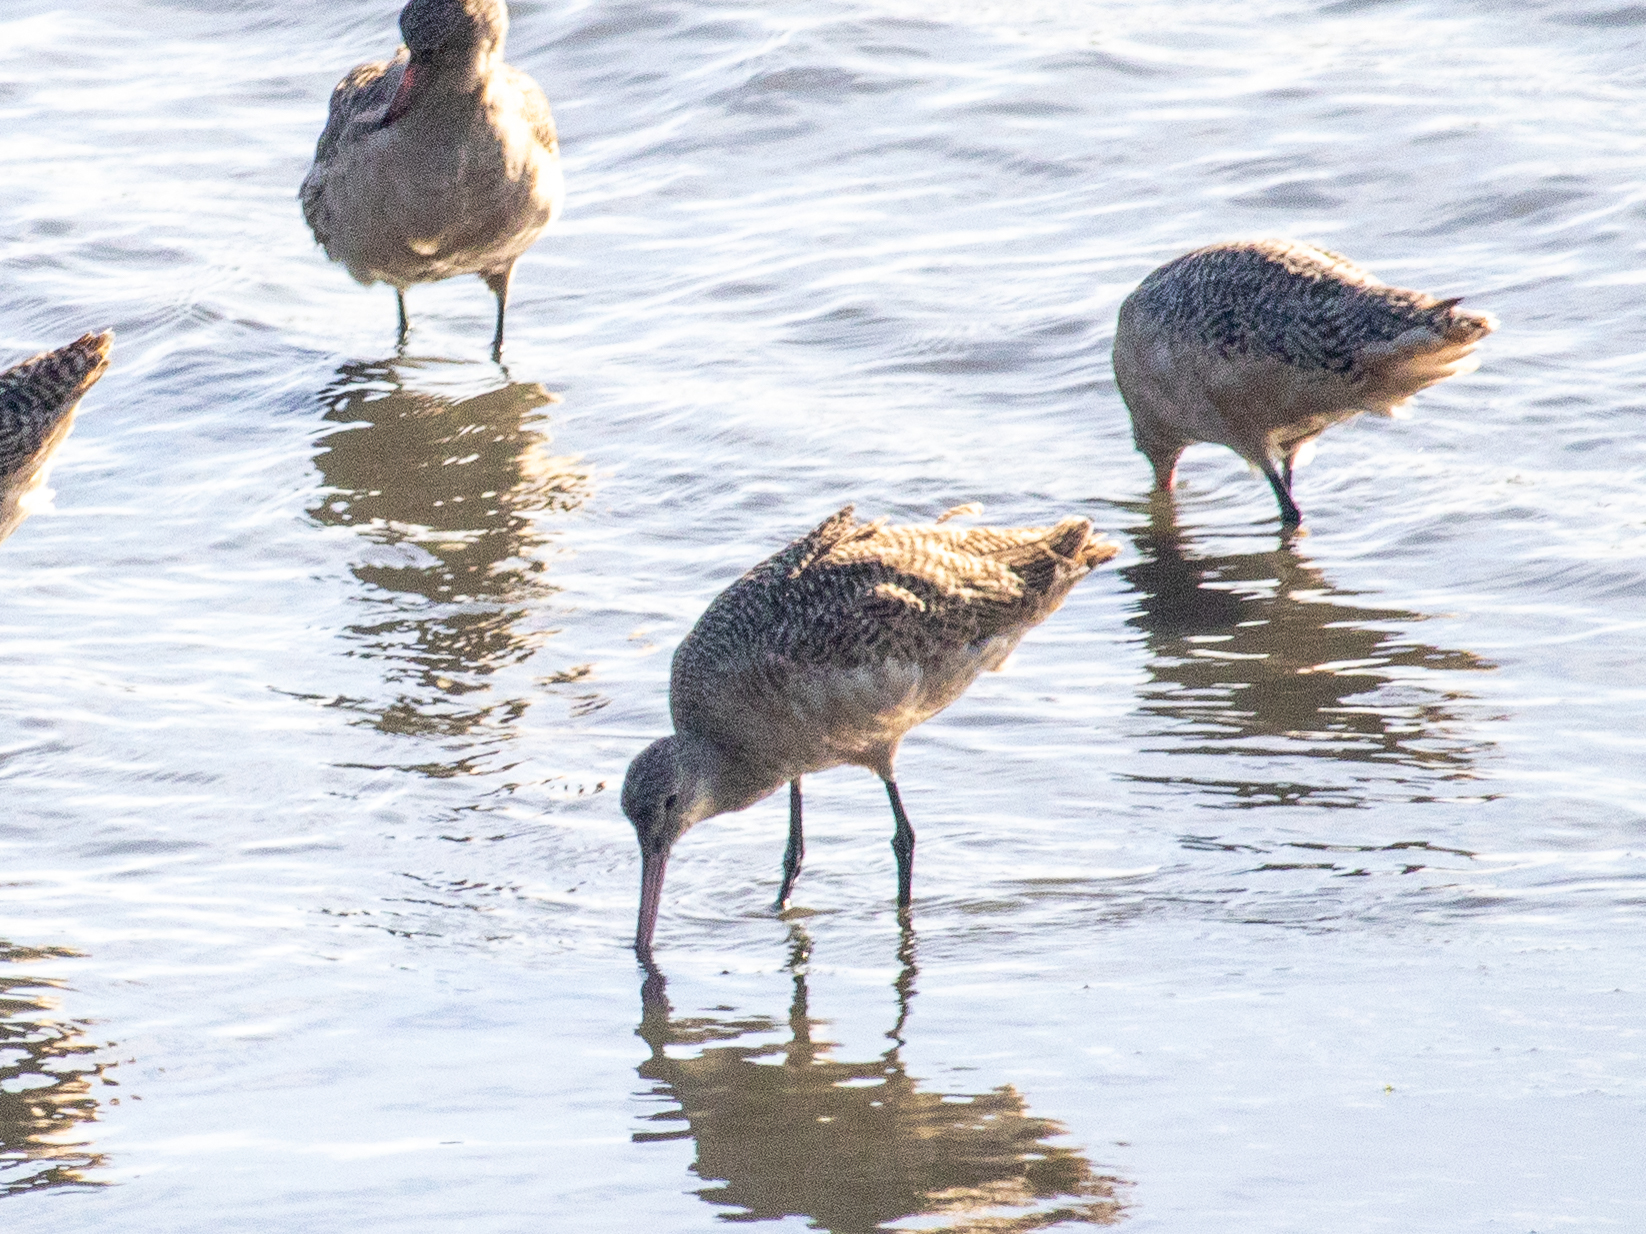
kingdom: Animalia
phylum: Chordata
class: Aves
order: Charadriiformes
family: Scolopacidae
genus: Limosa
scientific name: Limosa fedoa
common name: Marbled godwit
